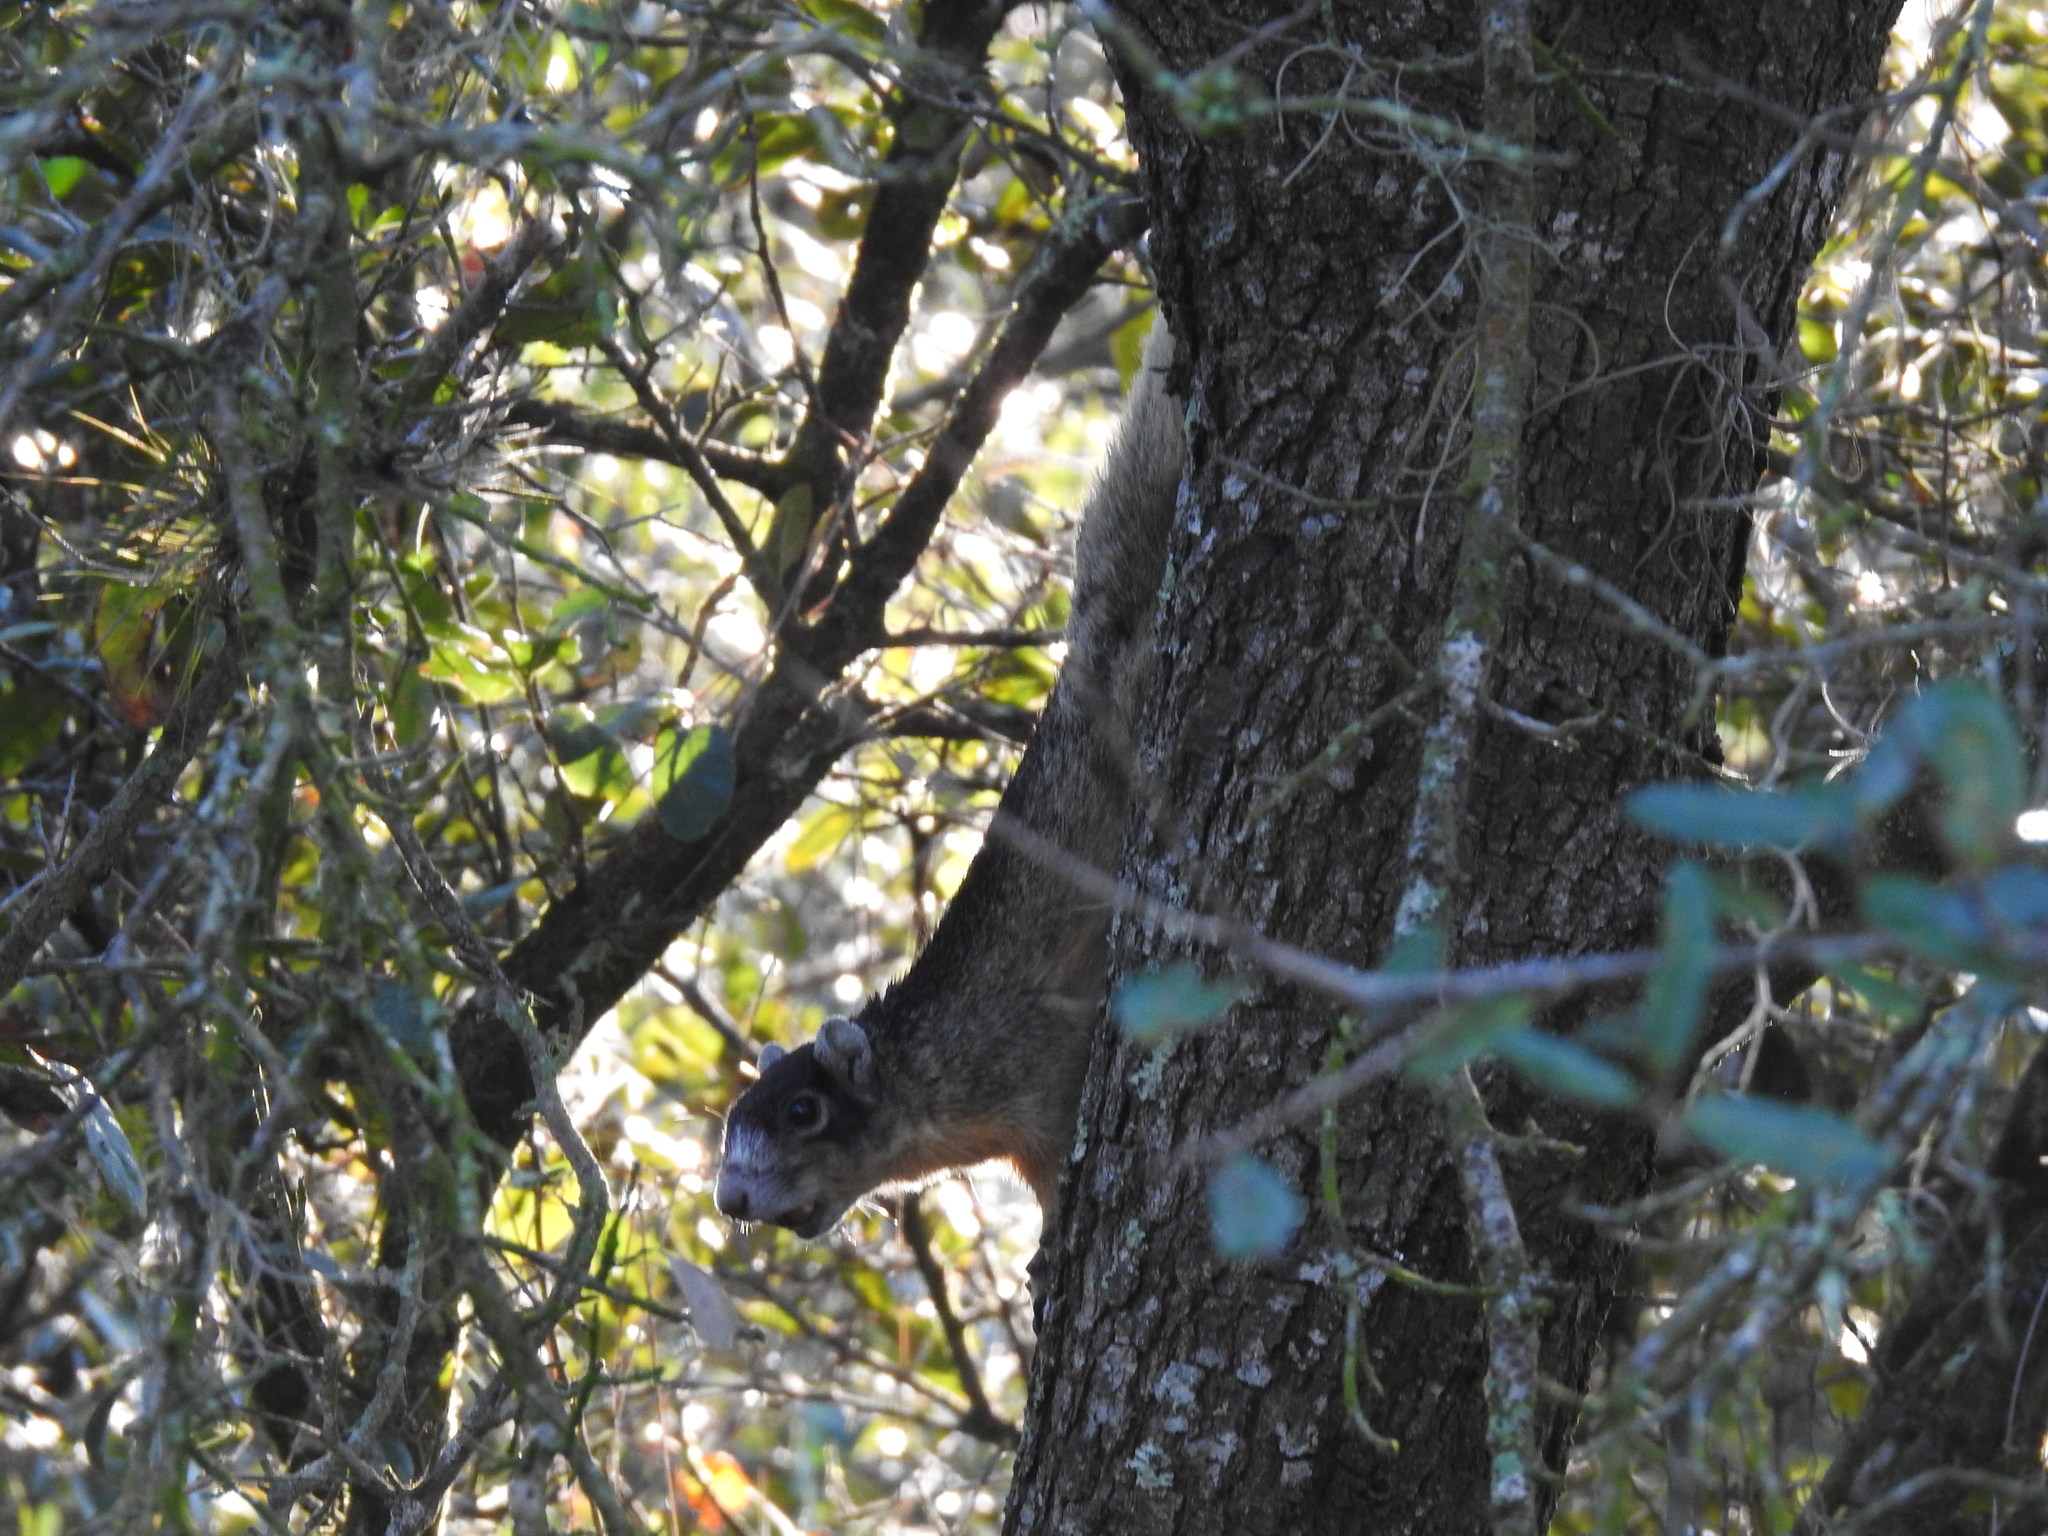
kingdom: Animalia
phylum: Chordata
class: Mammalia
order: Rodentia
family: Sciuridae
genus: Sciurus
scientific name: Sciurus niger
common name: Fox squirrel
